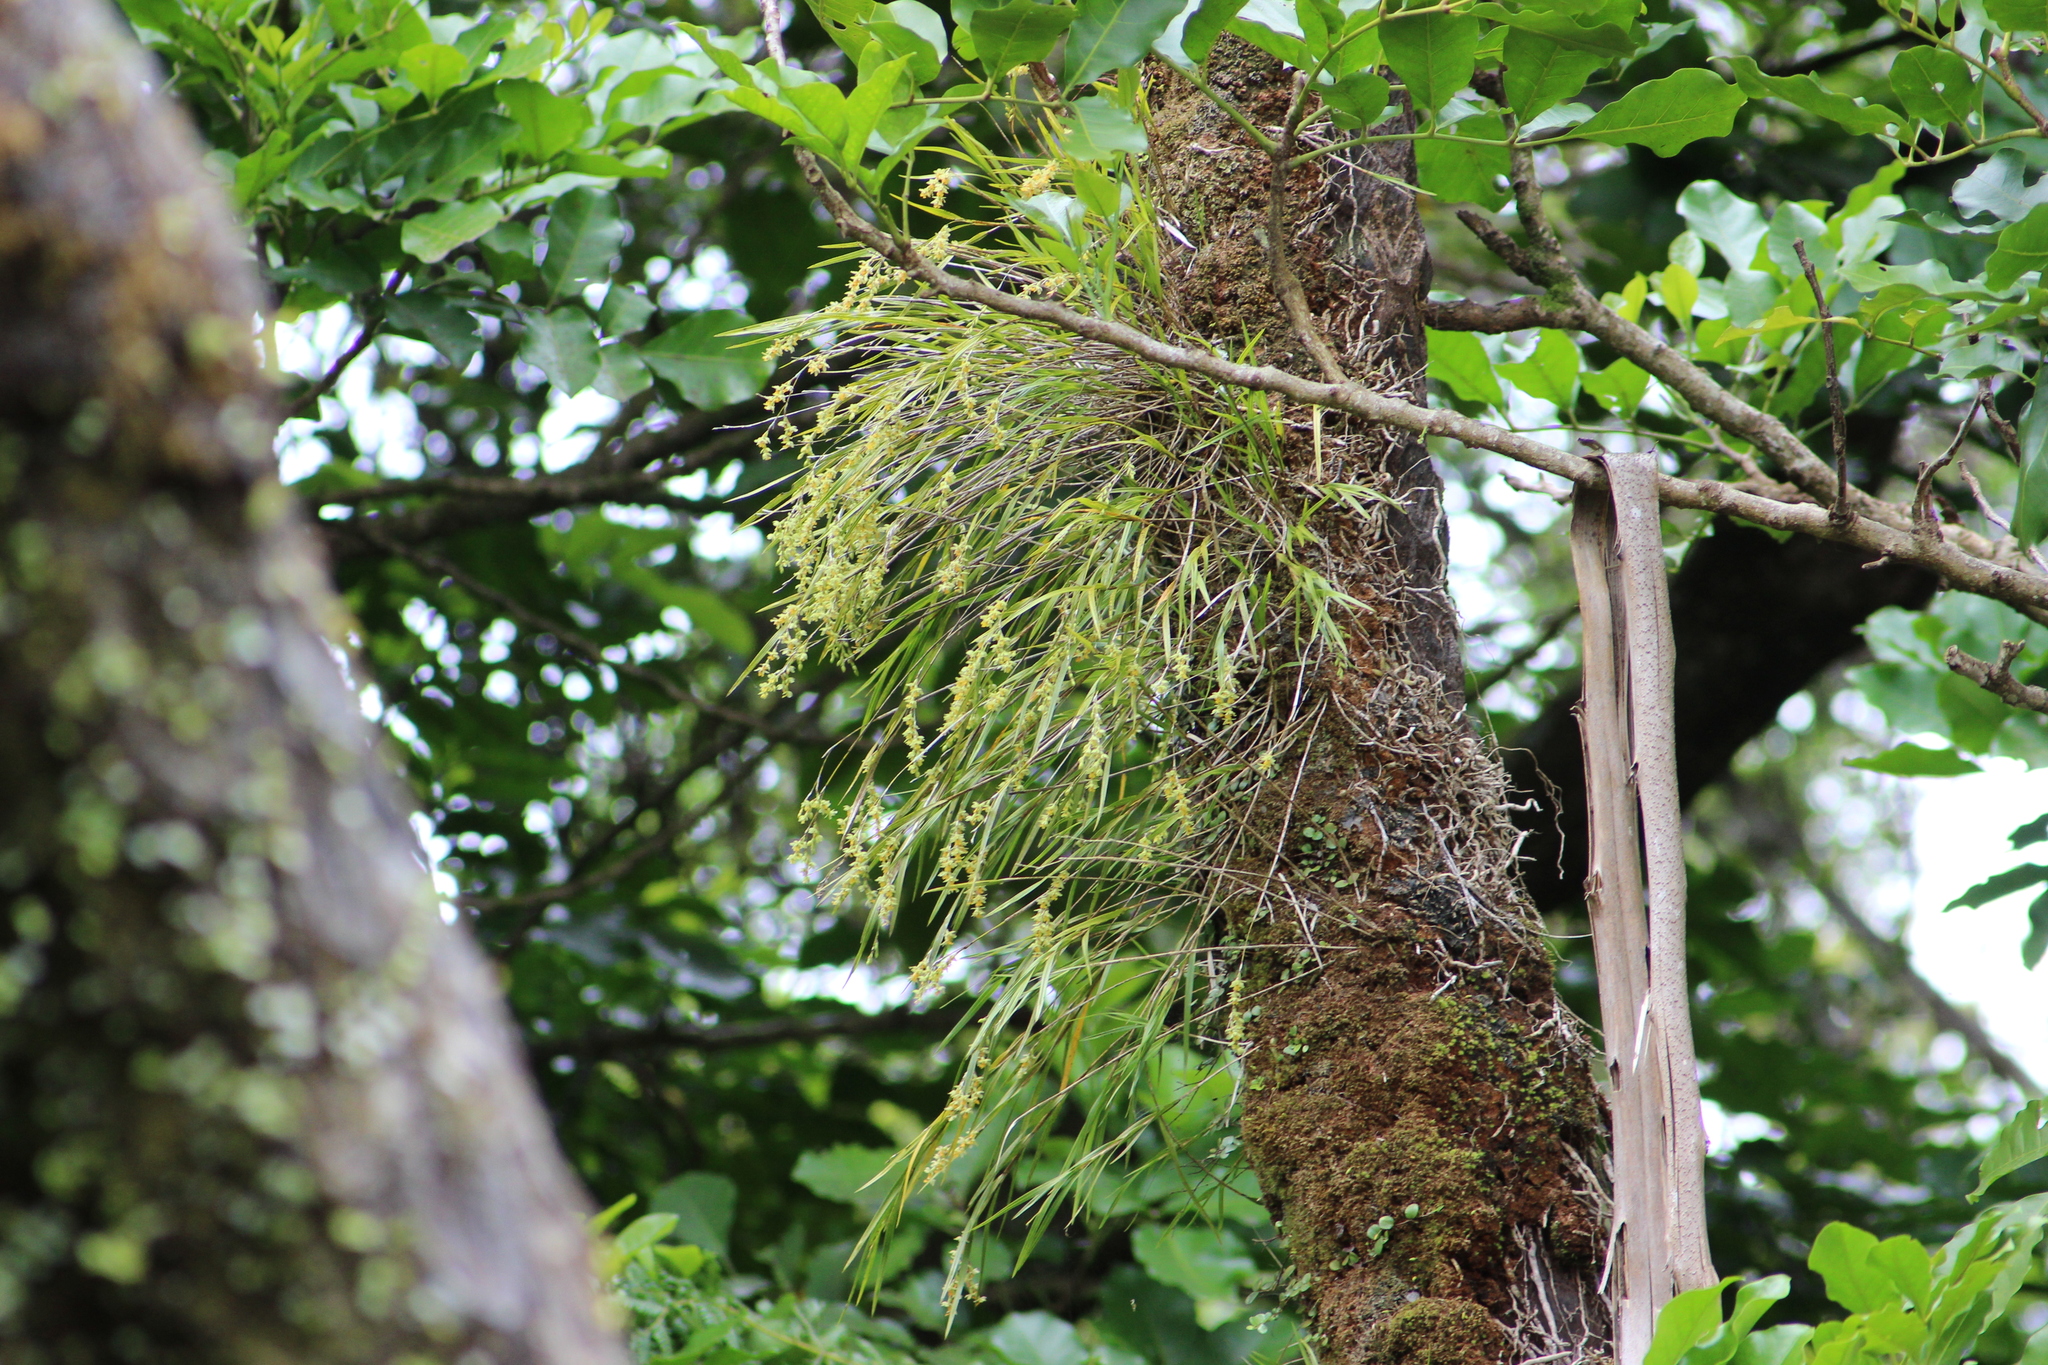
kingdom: Plantae
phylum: Tracheophyta
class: Liliopsida
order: Asparagales
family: Orchidaceae
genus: Earina
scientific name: Earina mucronata
